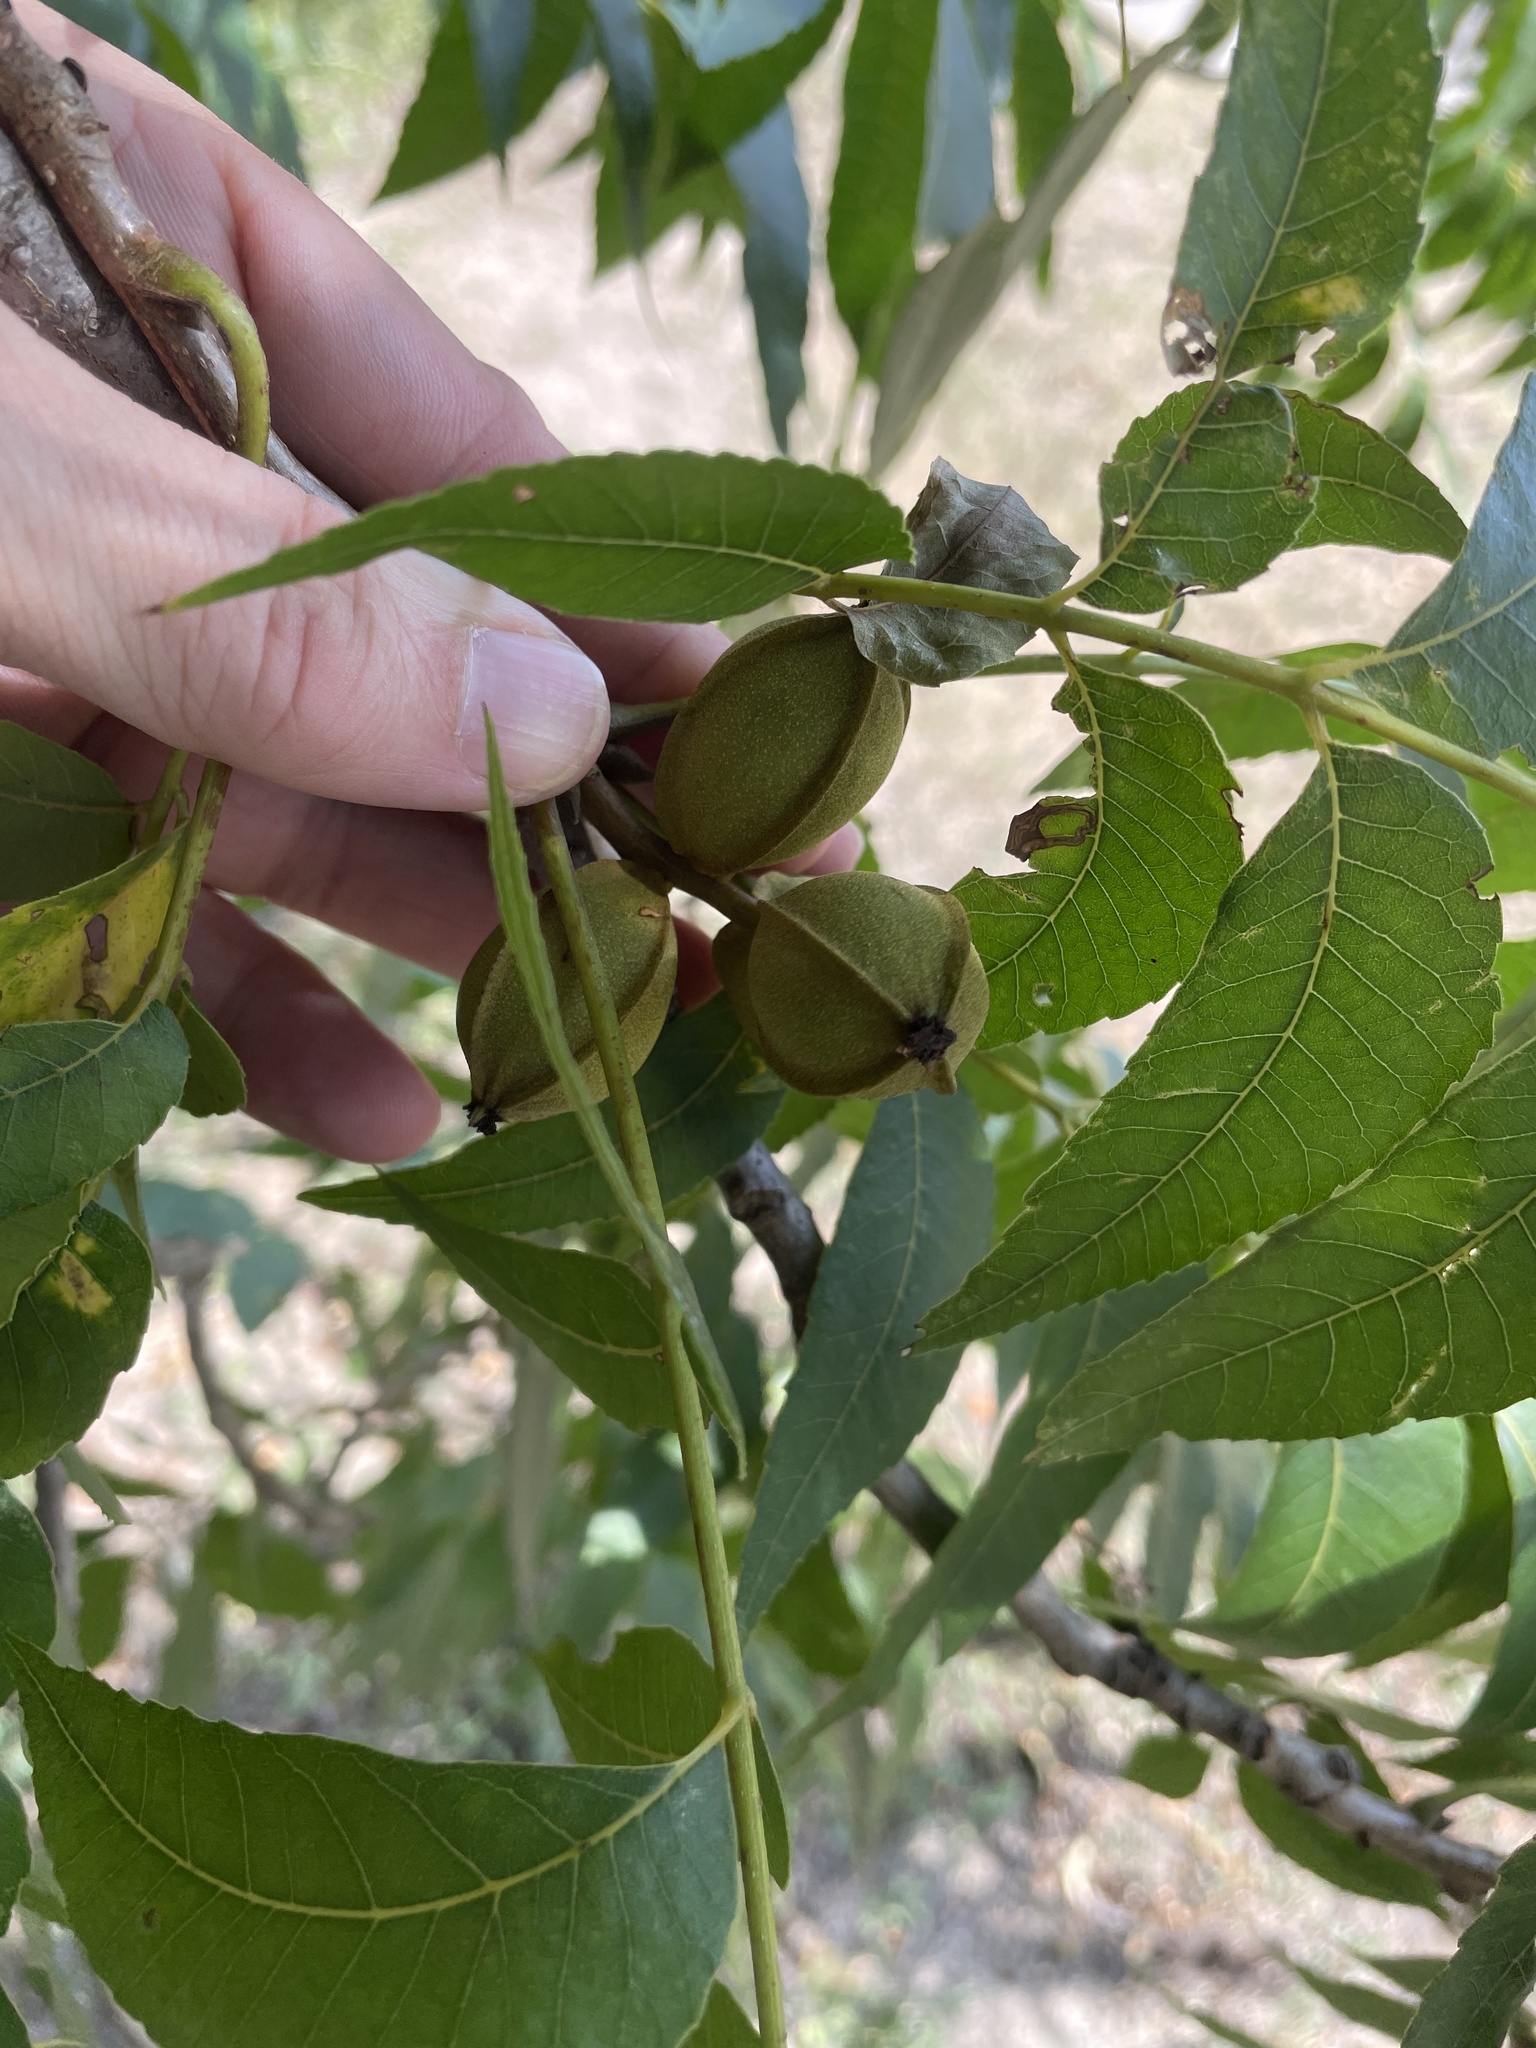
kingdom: Plantae
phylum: Tracheophyta
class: Magnoliopsida
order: Fagales
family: Juglandaceae
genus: Carya
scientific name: Carya illinoinensis
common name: Pecan
